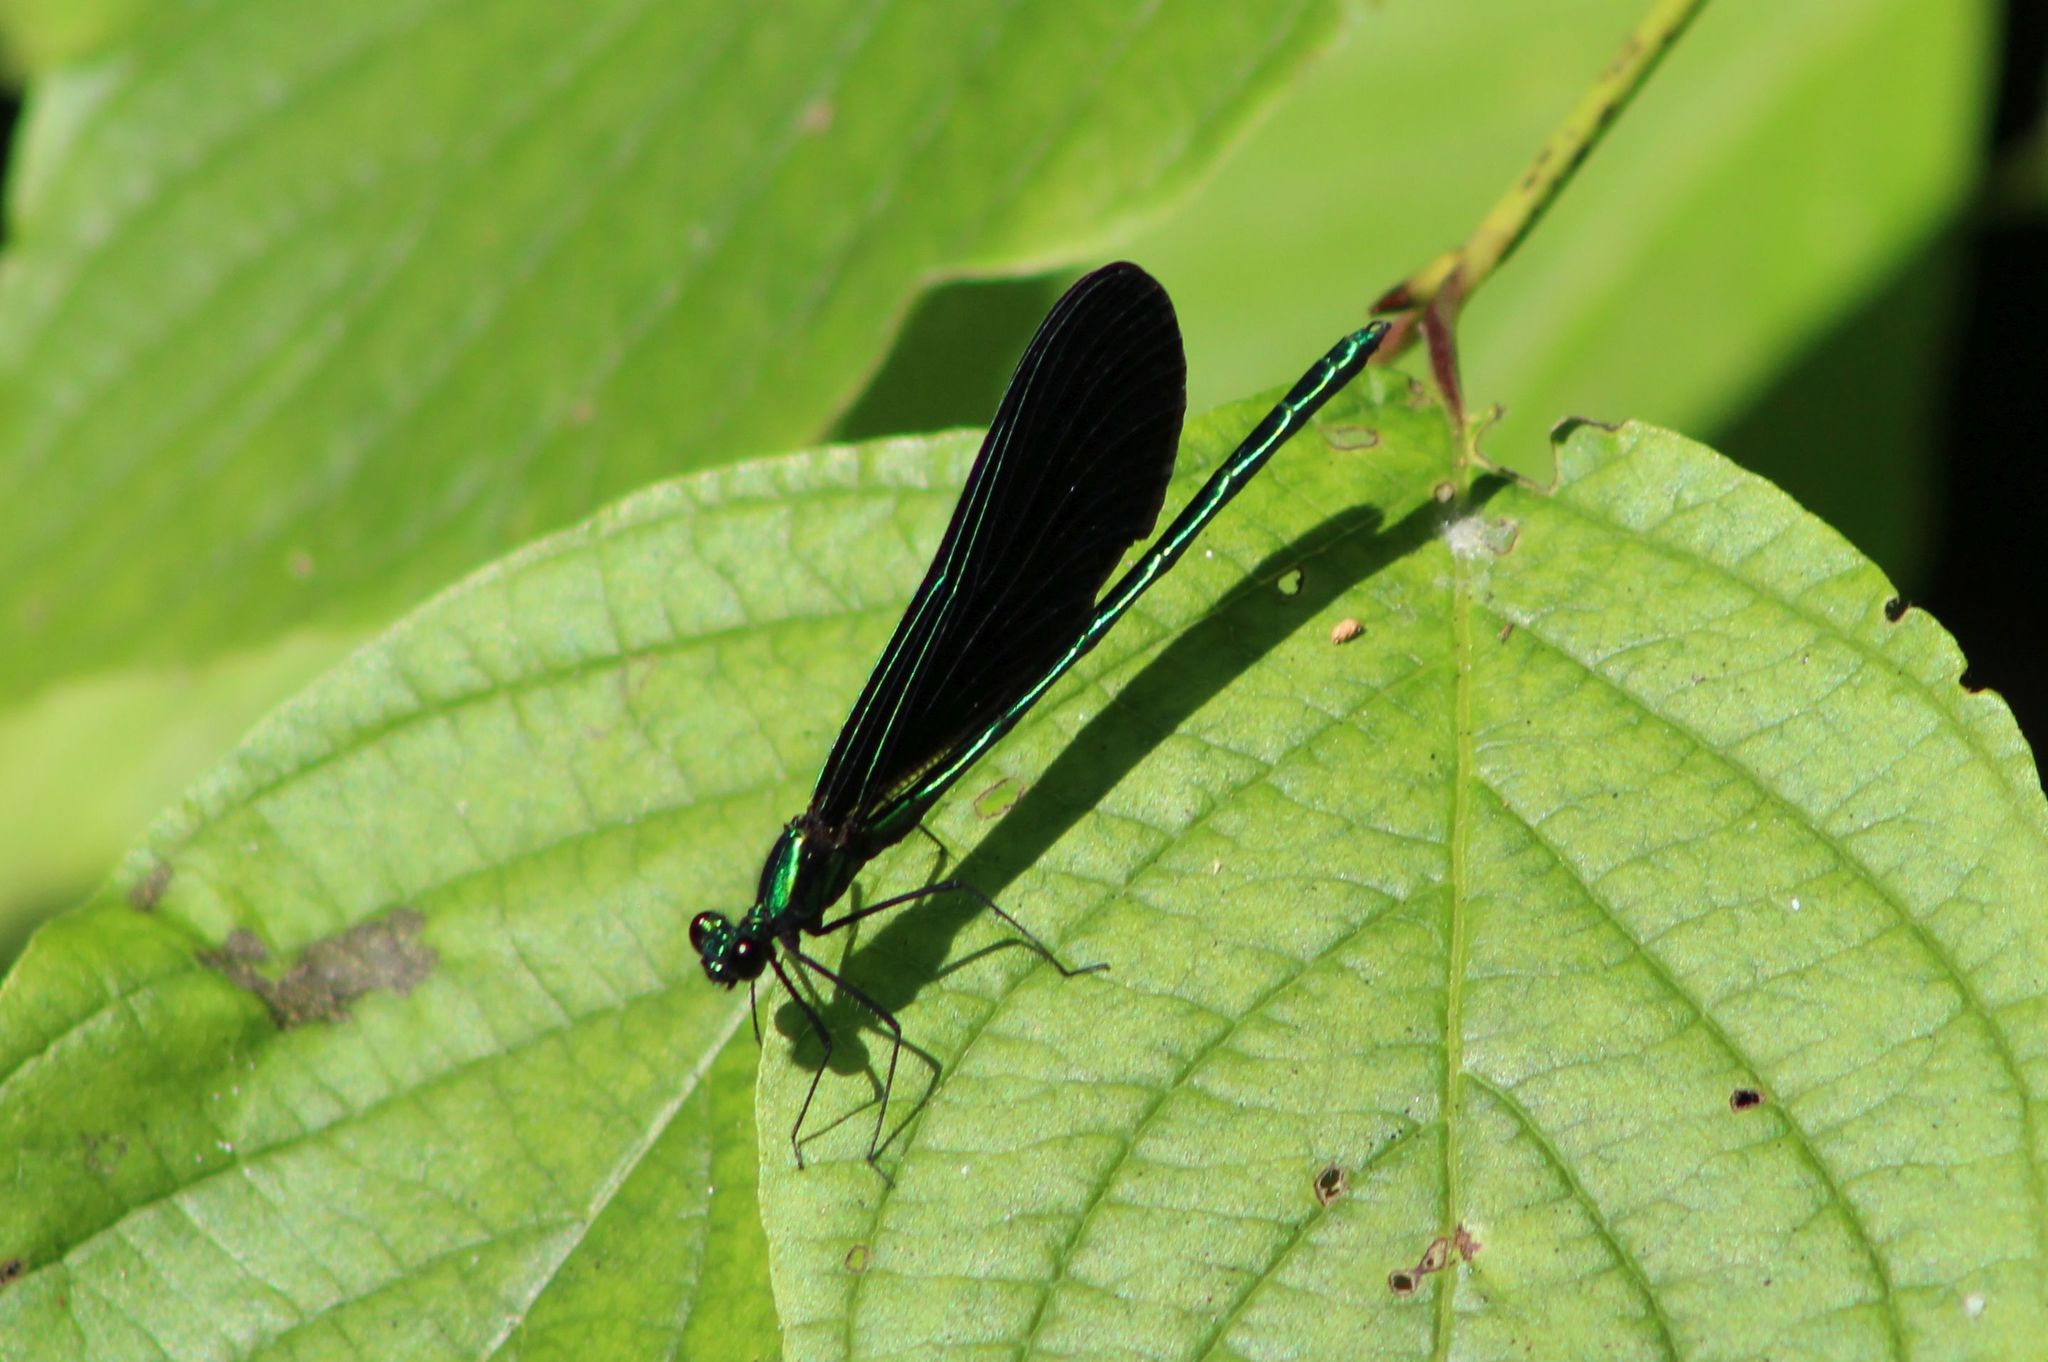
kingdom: Animalia
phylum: Arthropoda
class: Insecta
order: Odonata
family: Calopterygidae
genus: Calopteryx
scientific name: Calopteryx maculata
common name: Ebony jewelwing
